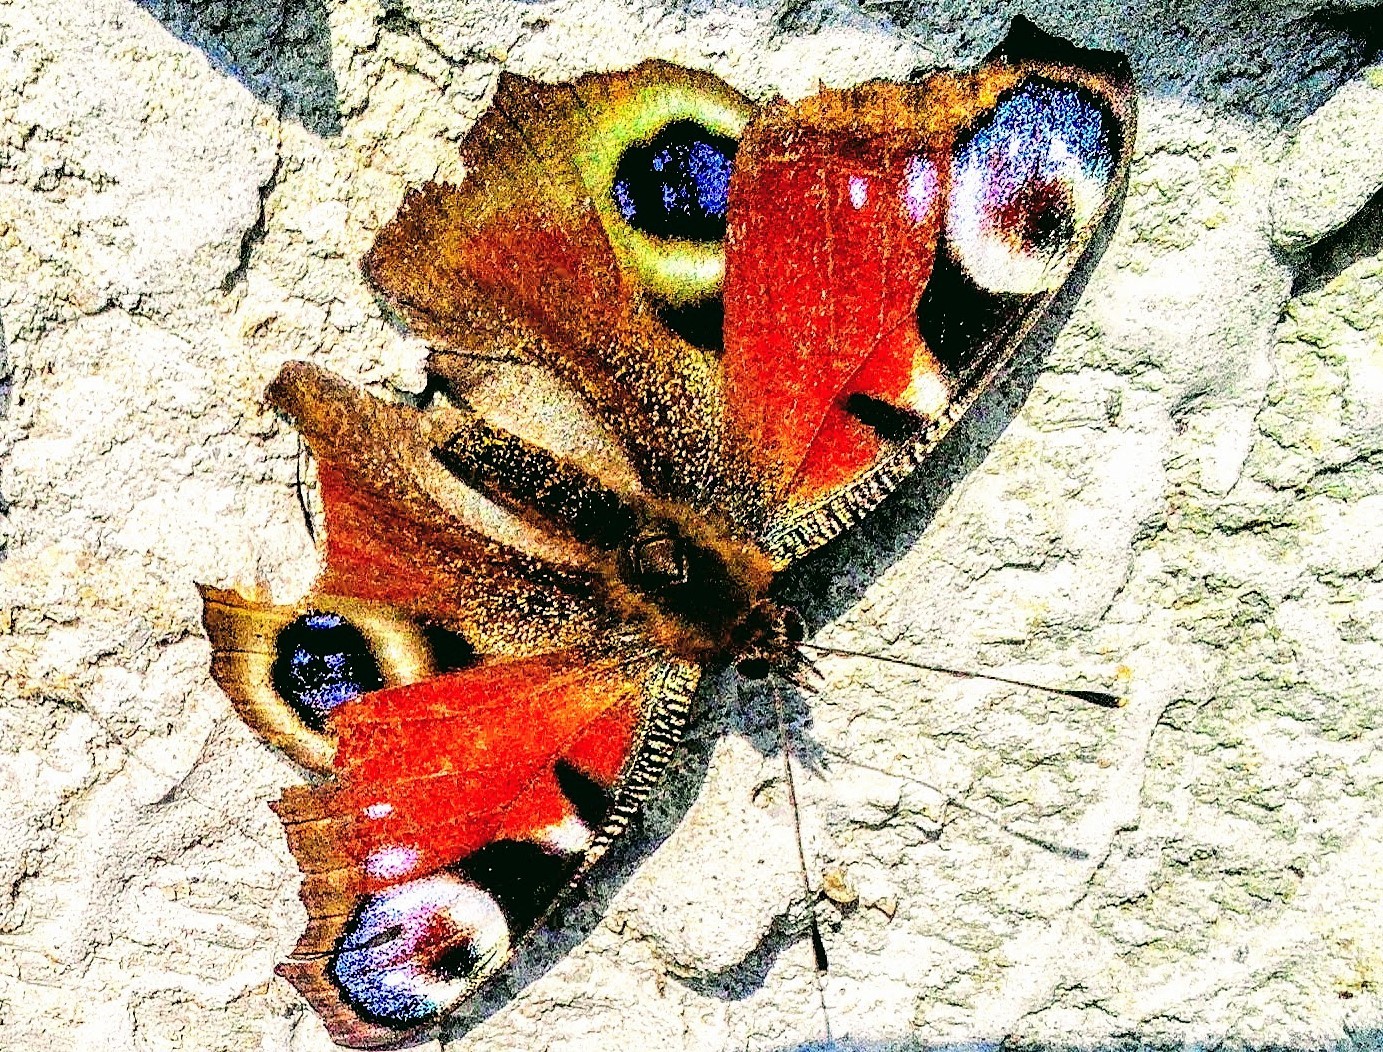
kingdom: Animalia
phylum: Arthropoda
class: Insecta
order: Lepidoptera
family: Nymphalidae
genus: Aglais
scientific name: Aglais io
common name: Peacock
